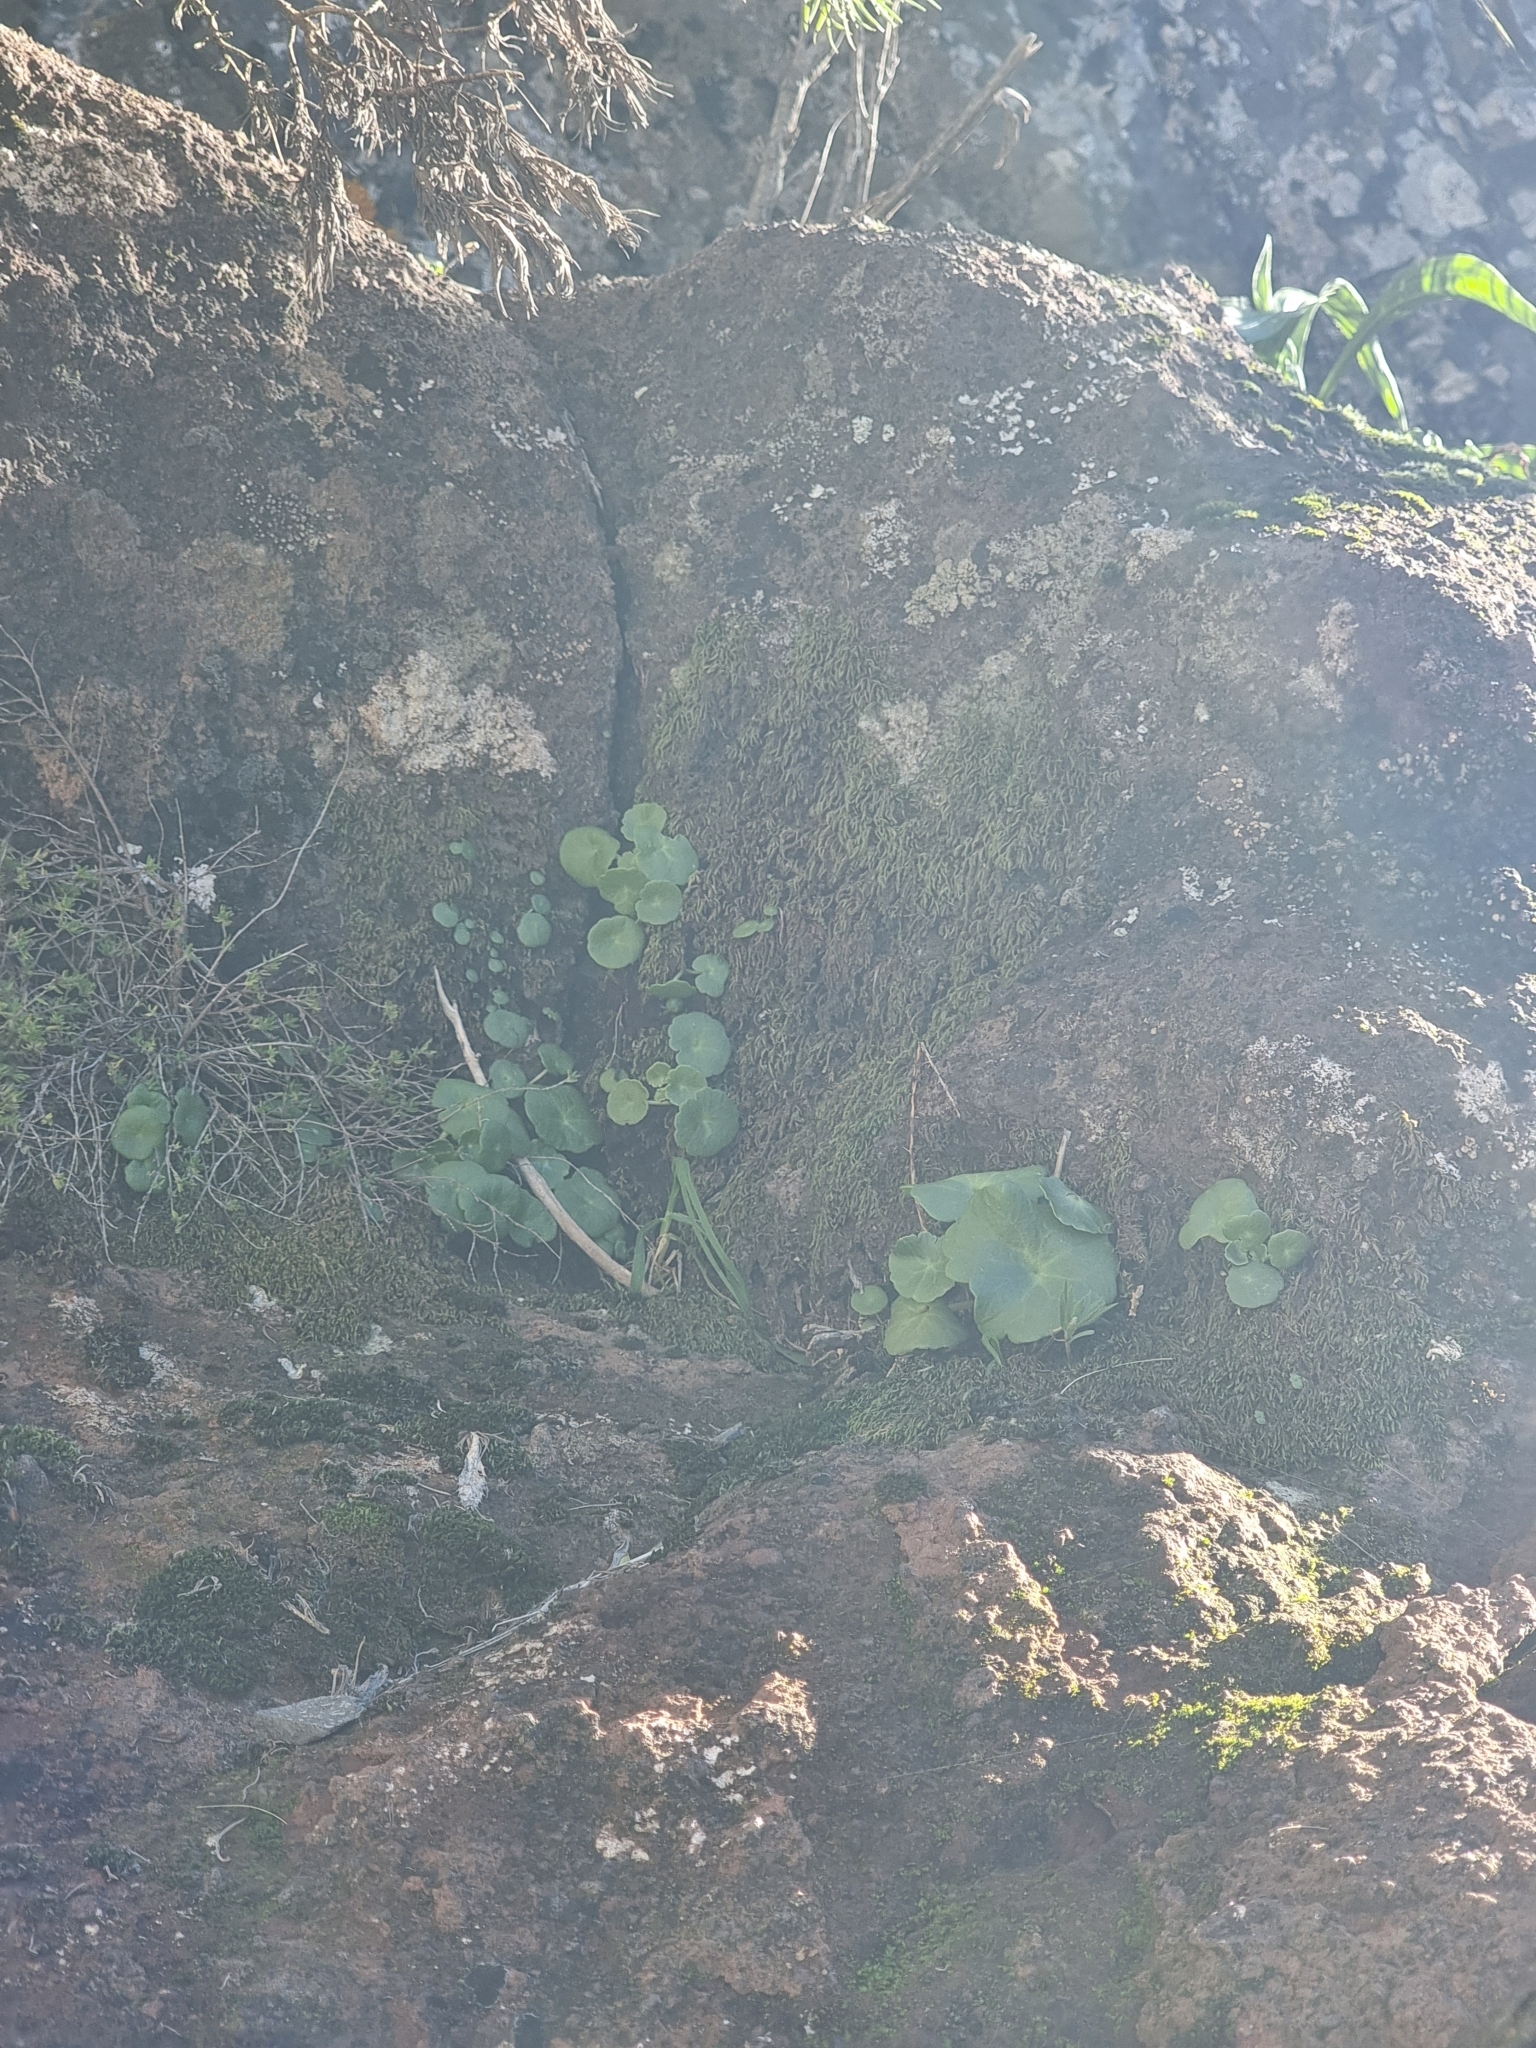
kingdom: Plantae
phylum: Tracheophyta
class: Magnoliopsida
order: Saxifragales
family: Crassulaceae
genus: Umbilicus
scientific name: Umbilicus rupestris
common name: Navelwort
